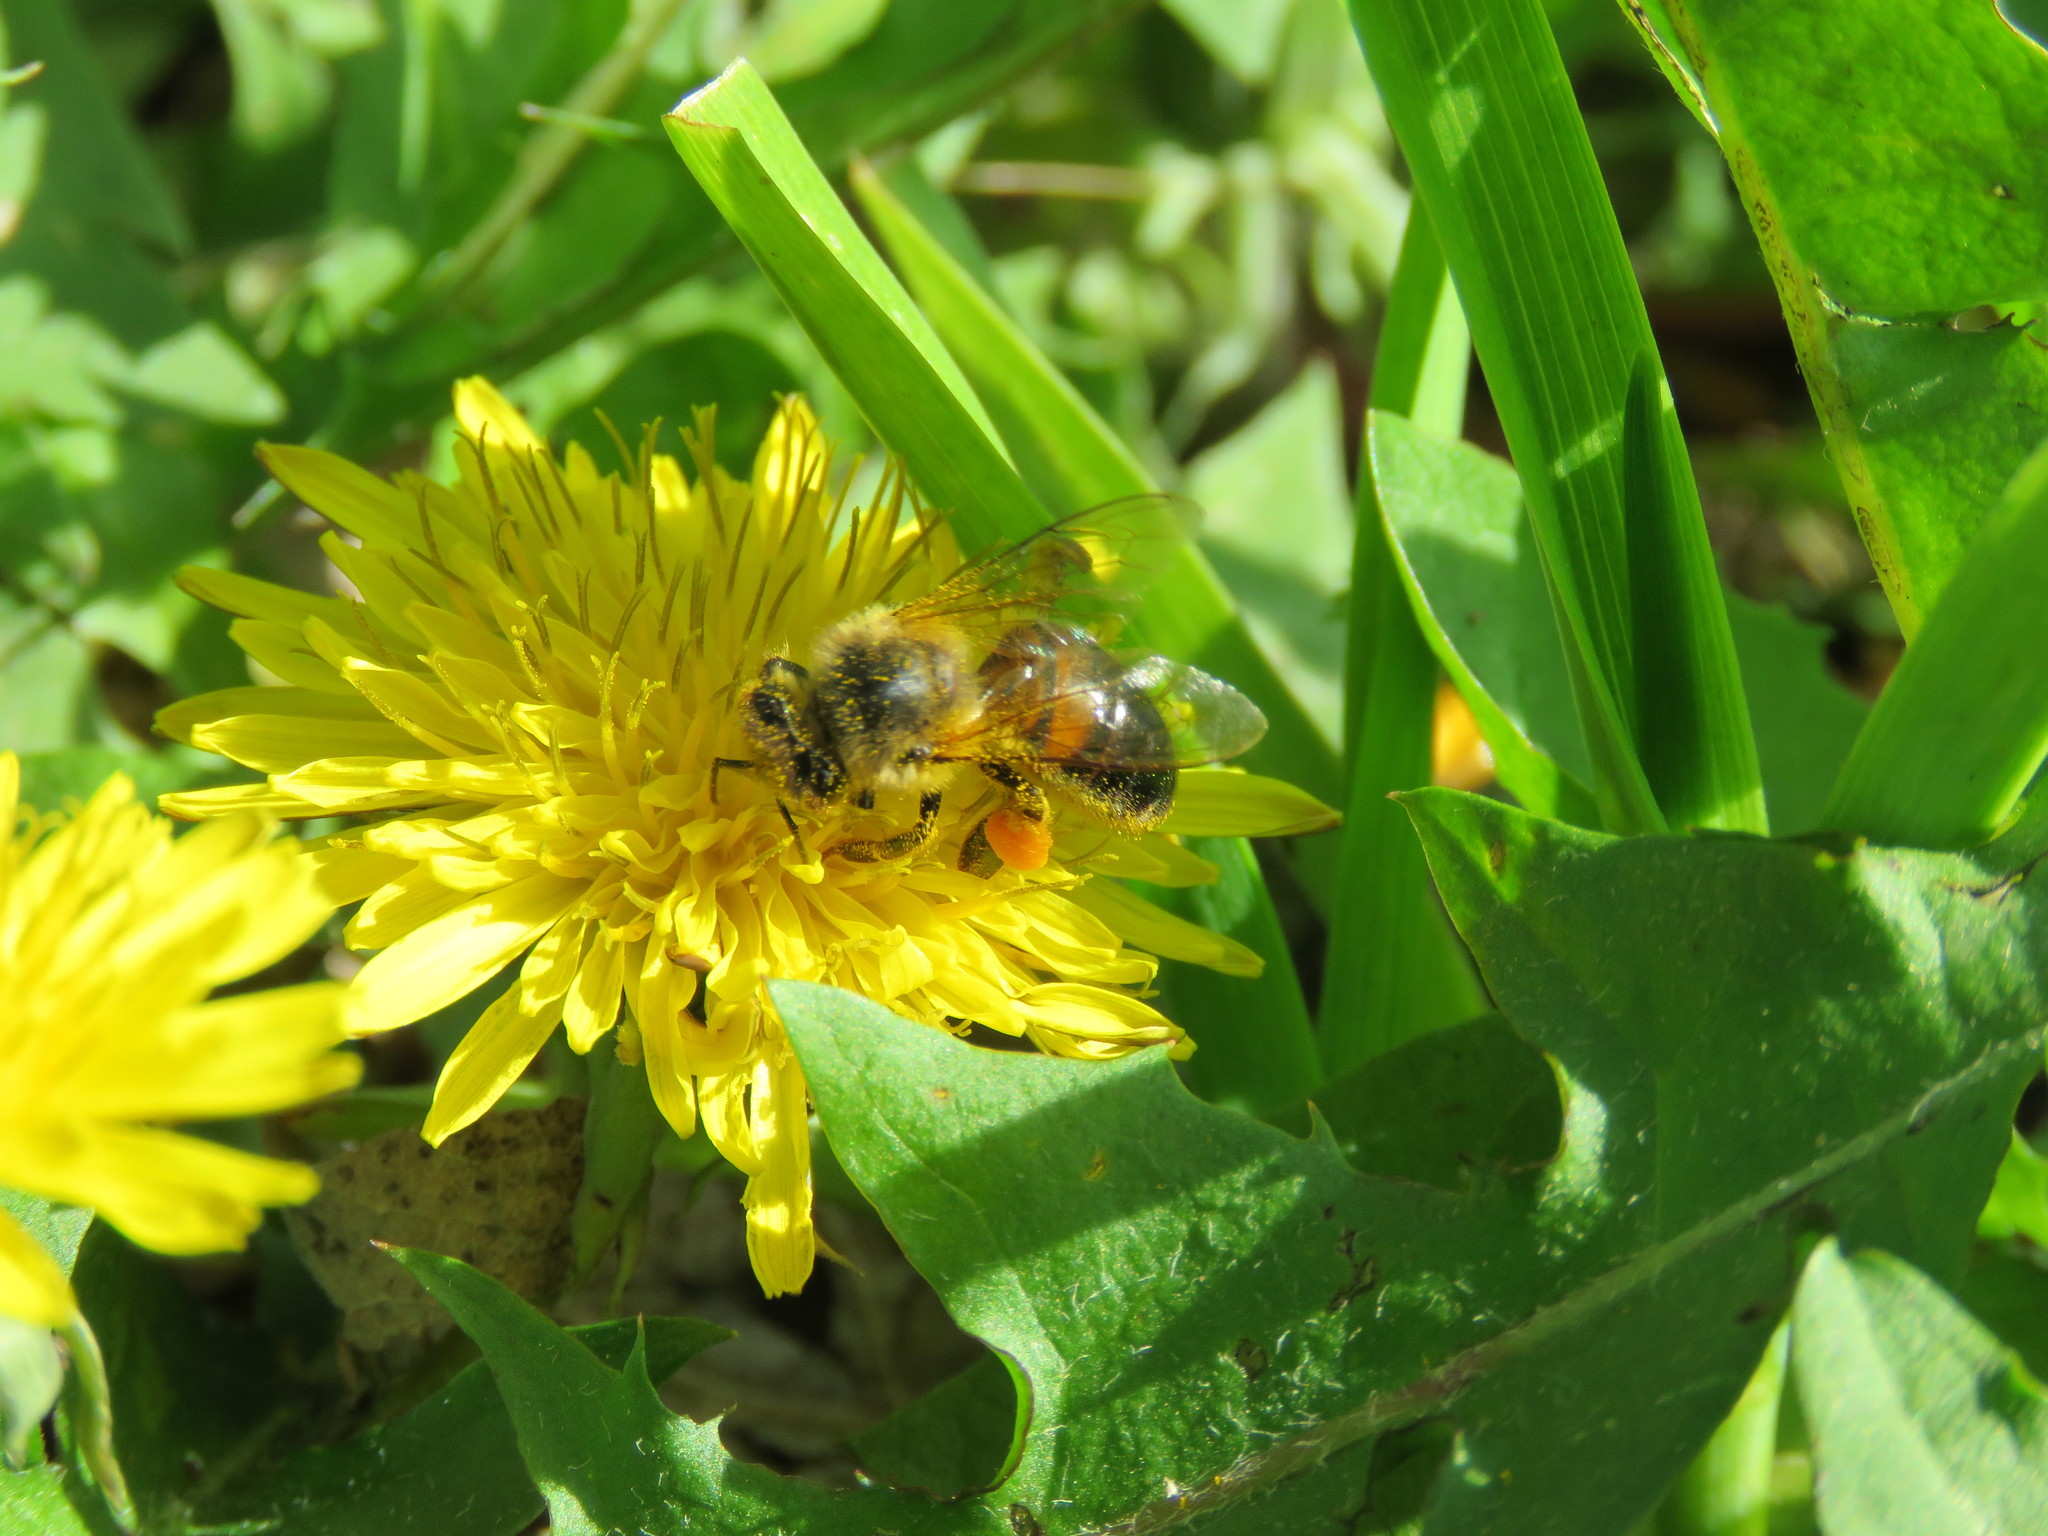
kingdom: Animalia
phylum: Arthropoda
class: Insecta
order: Hymenoptera
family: Apidae
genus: Apis
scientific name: Apis mellifera
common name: Honey bee
